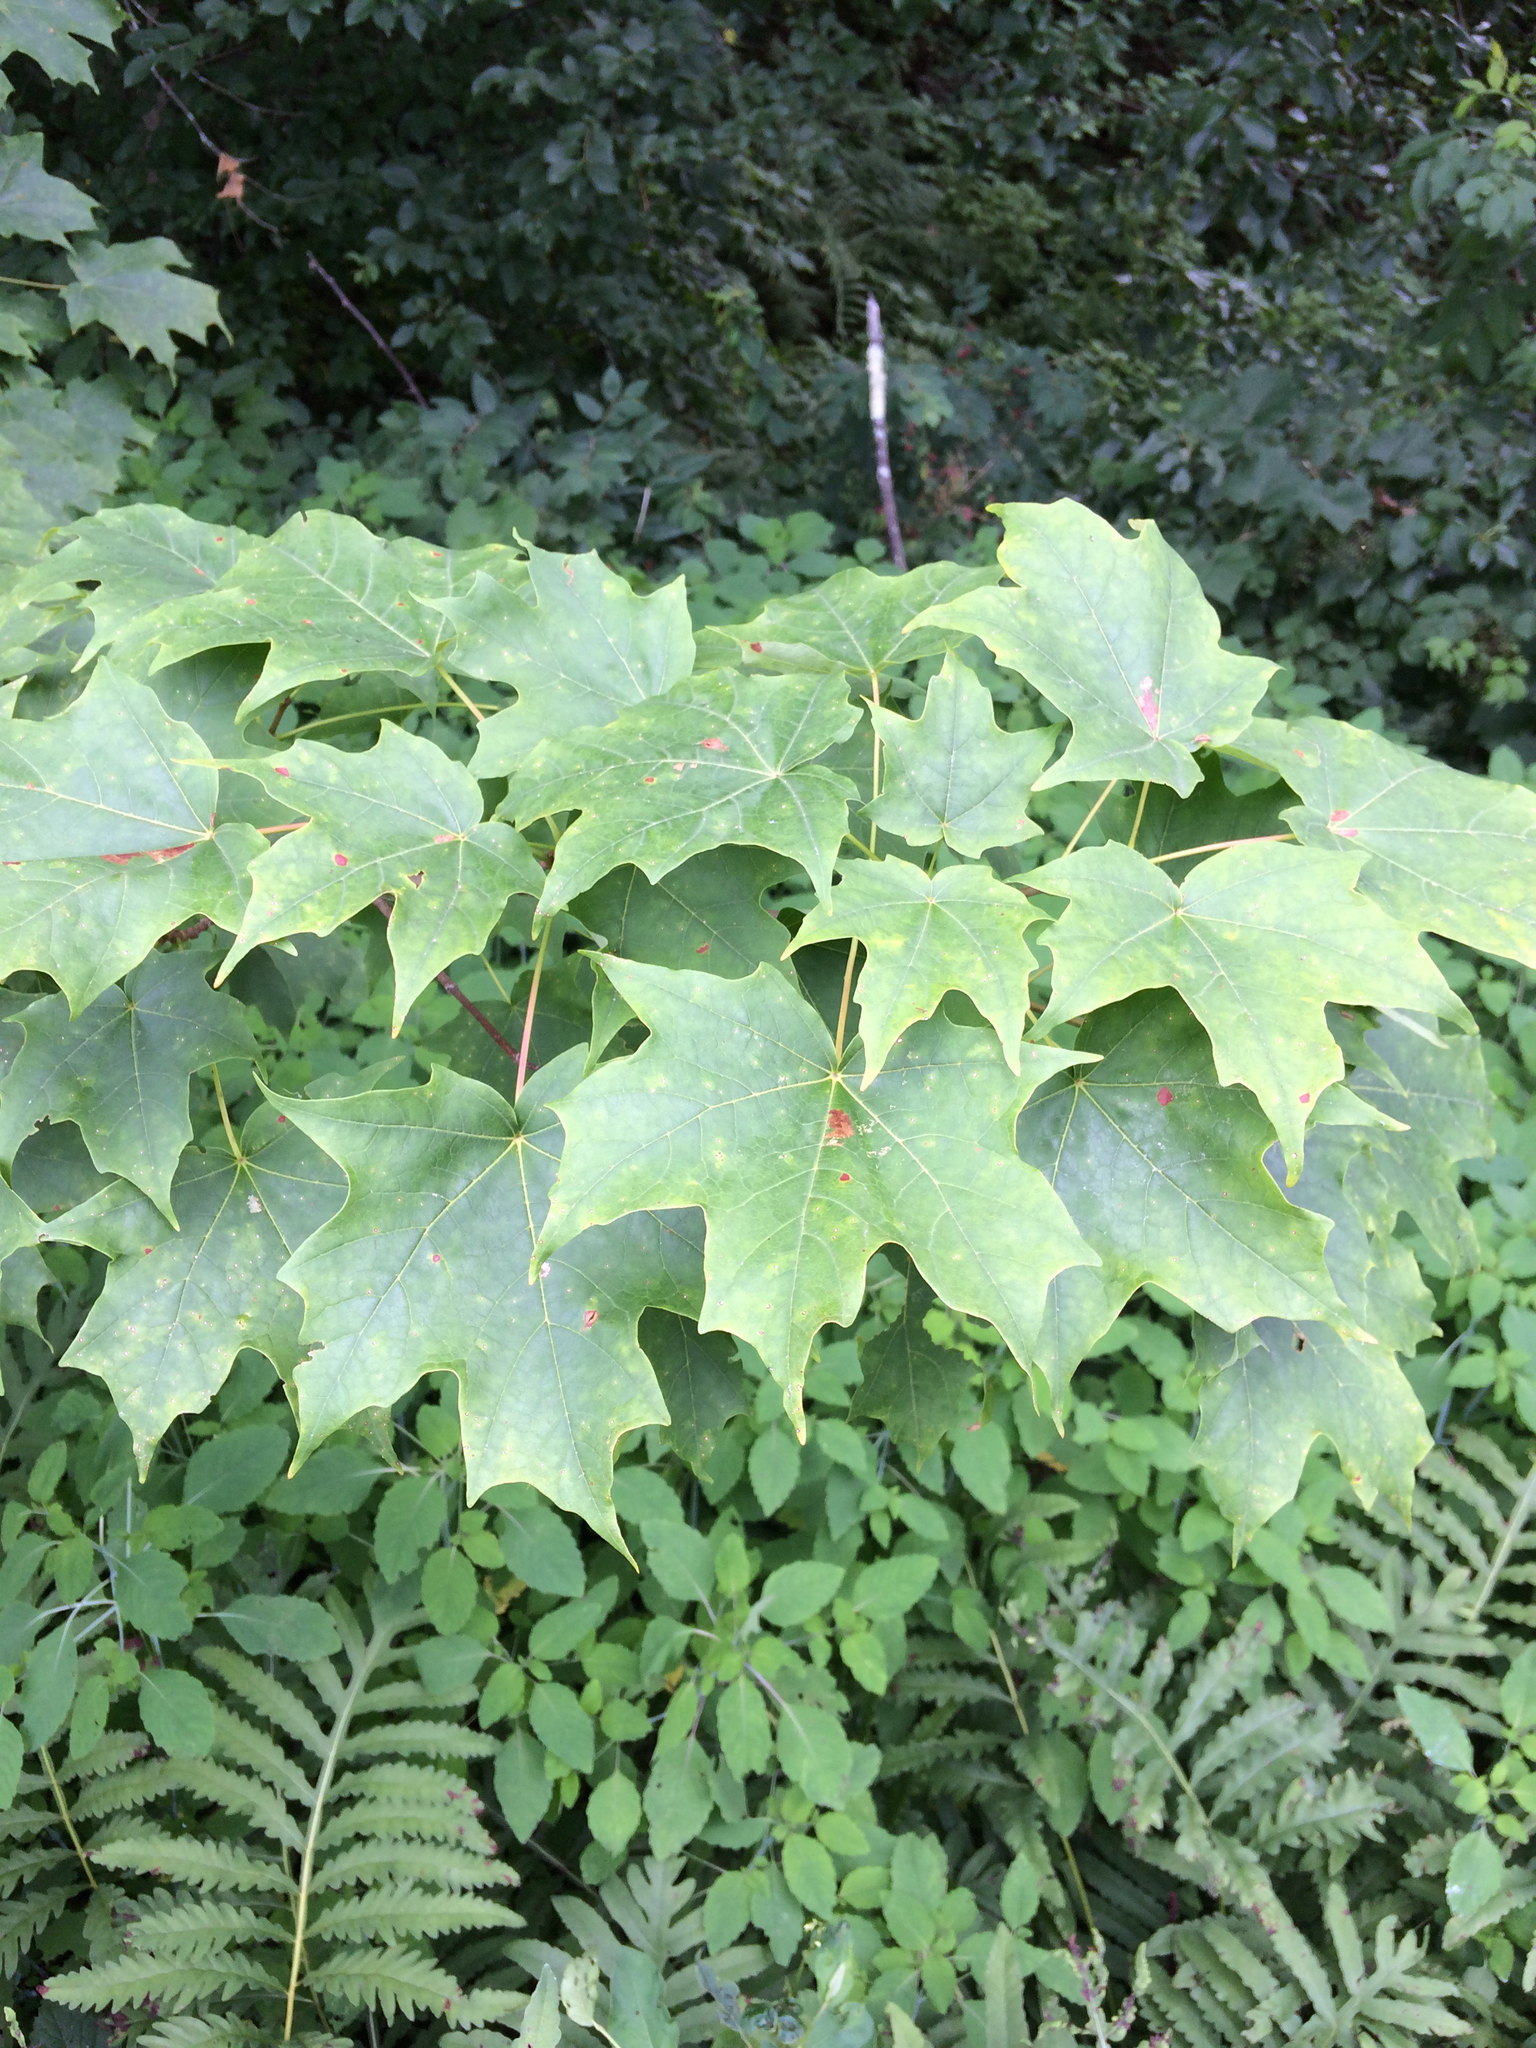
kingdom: Plantae
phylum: Tracheophyta
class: Magnoliopsida
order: Sapindales
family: Sapindaceae
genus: Acer
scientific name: Acer saccharum
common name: Sugar maple
